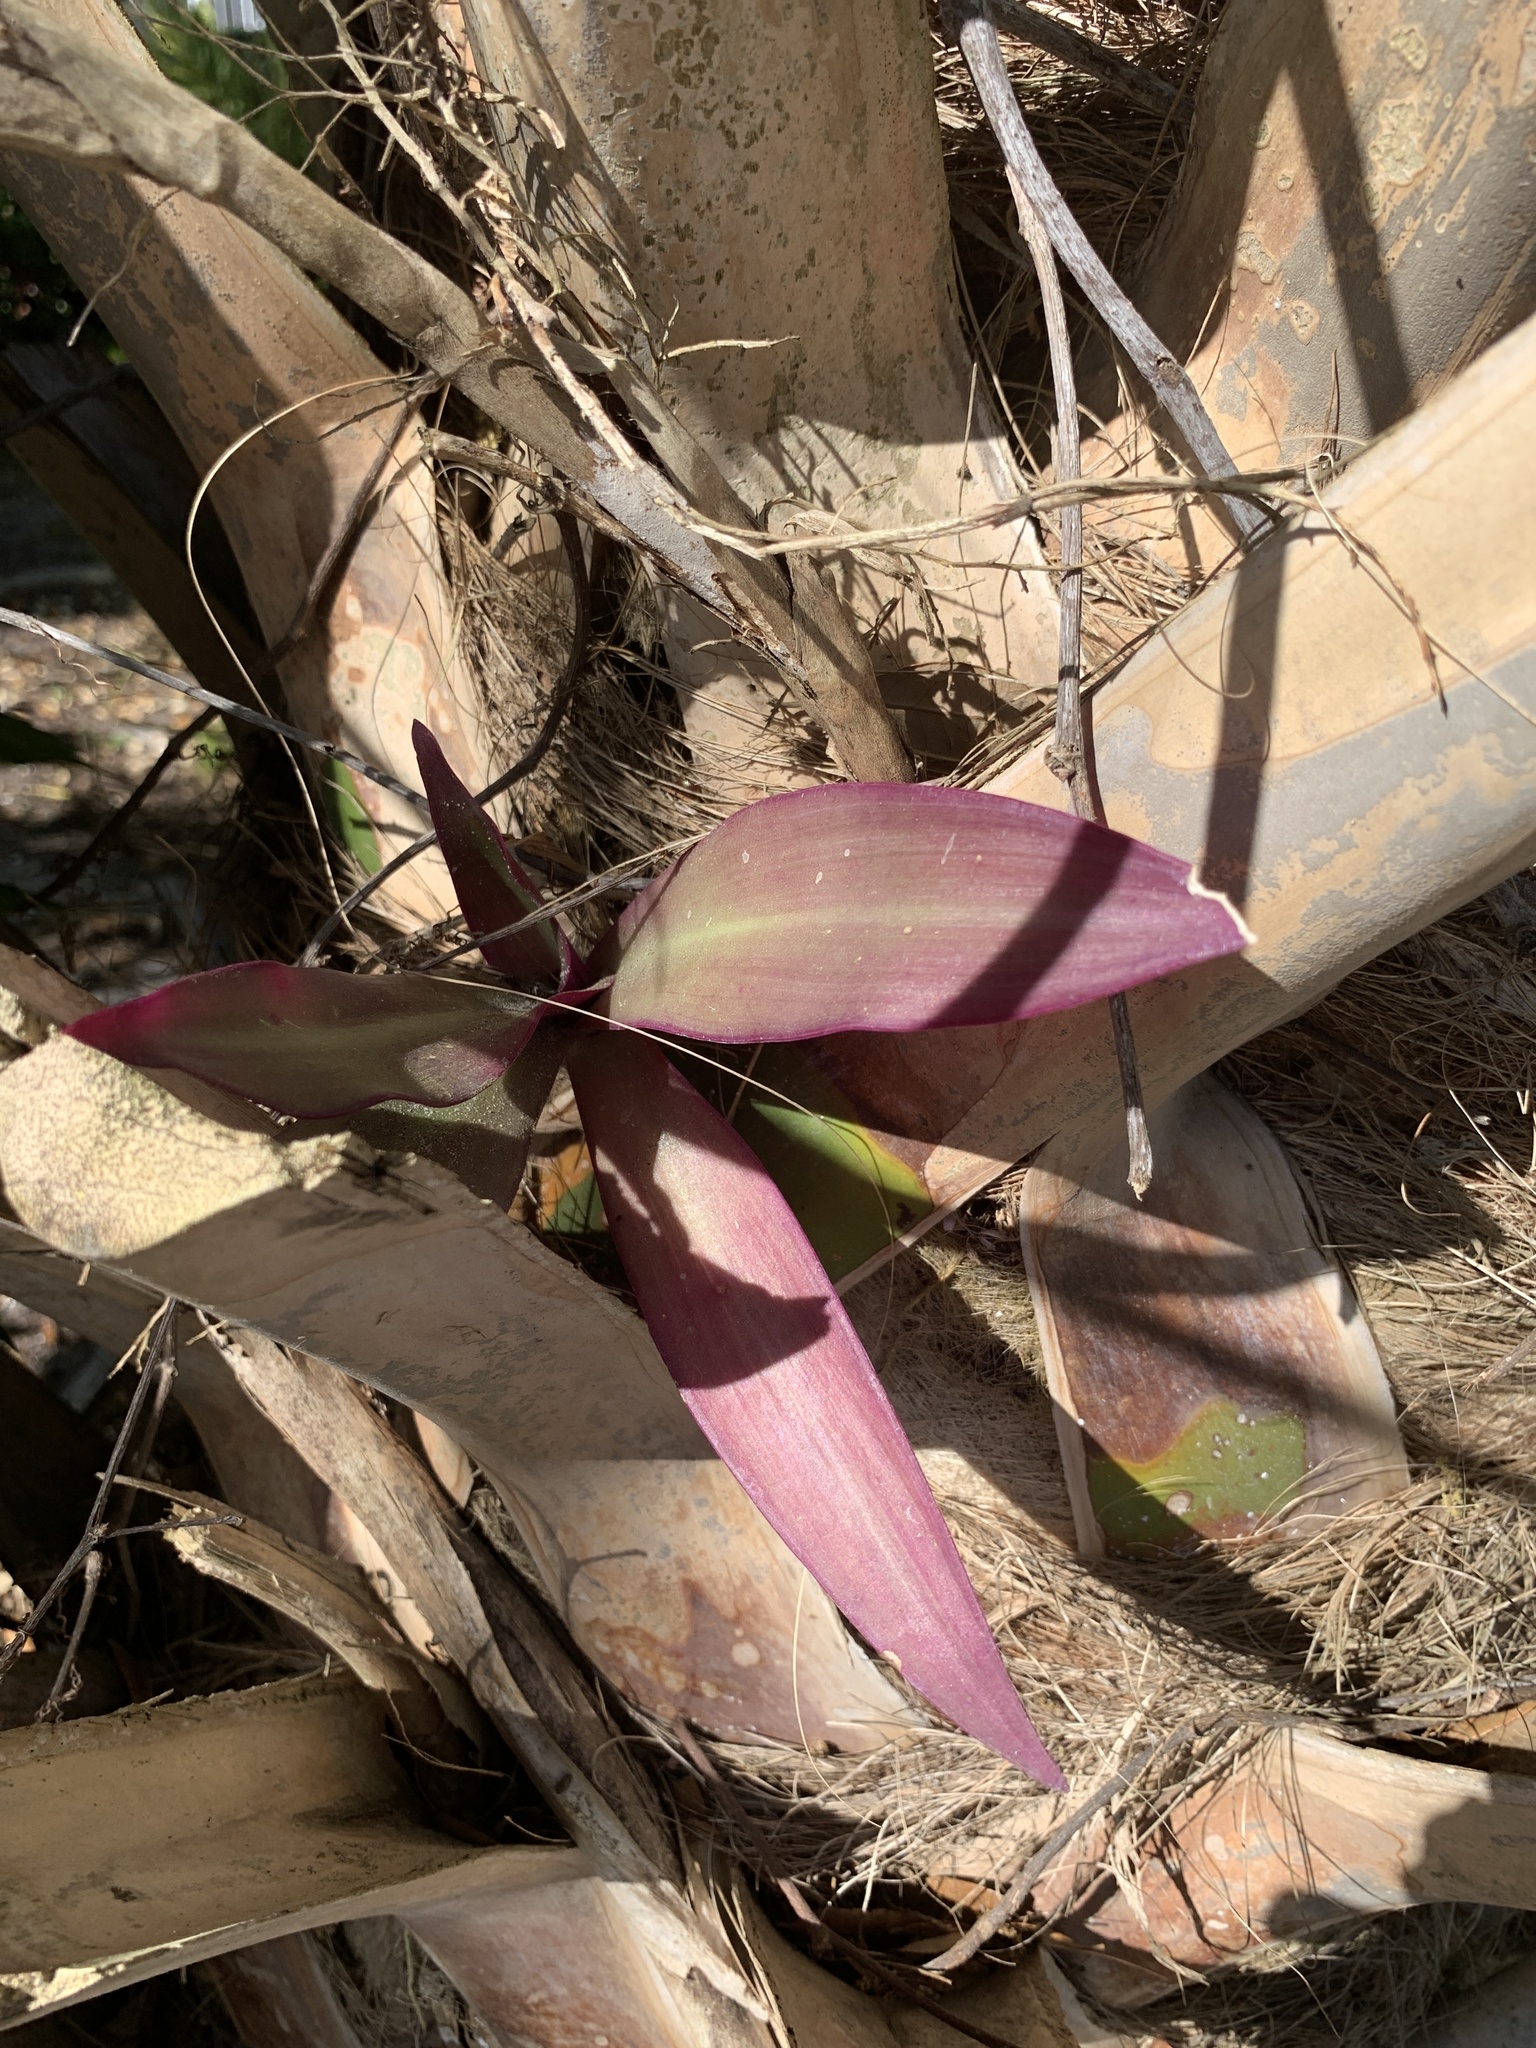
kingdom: Plantae
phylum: Tracheophyta
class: Liliopsida
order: Commelinales
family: Commelinaceae
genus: Tradescantia
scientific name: Tradescantia spathacea
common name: Boatlily
